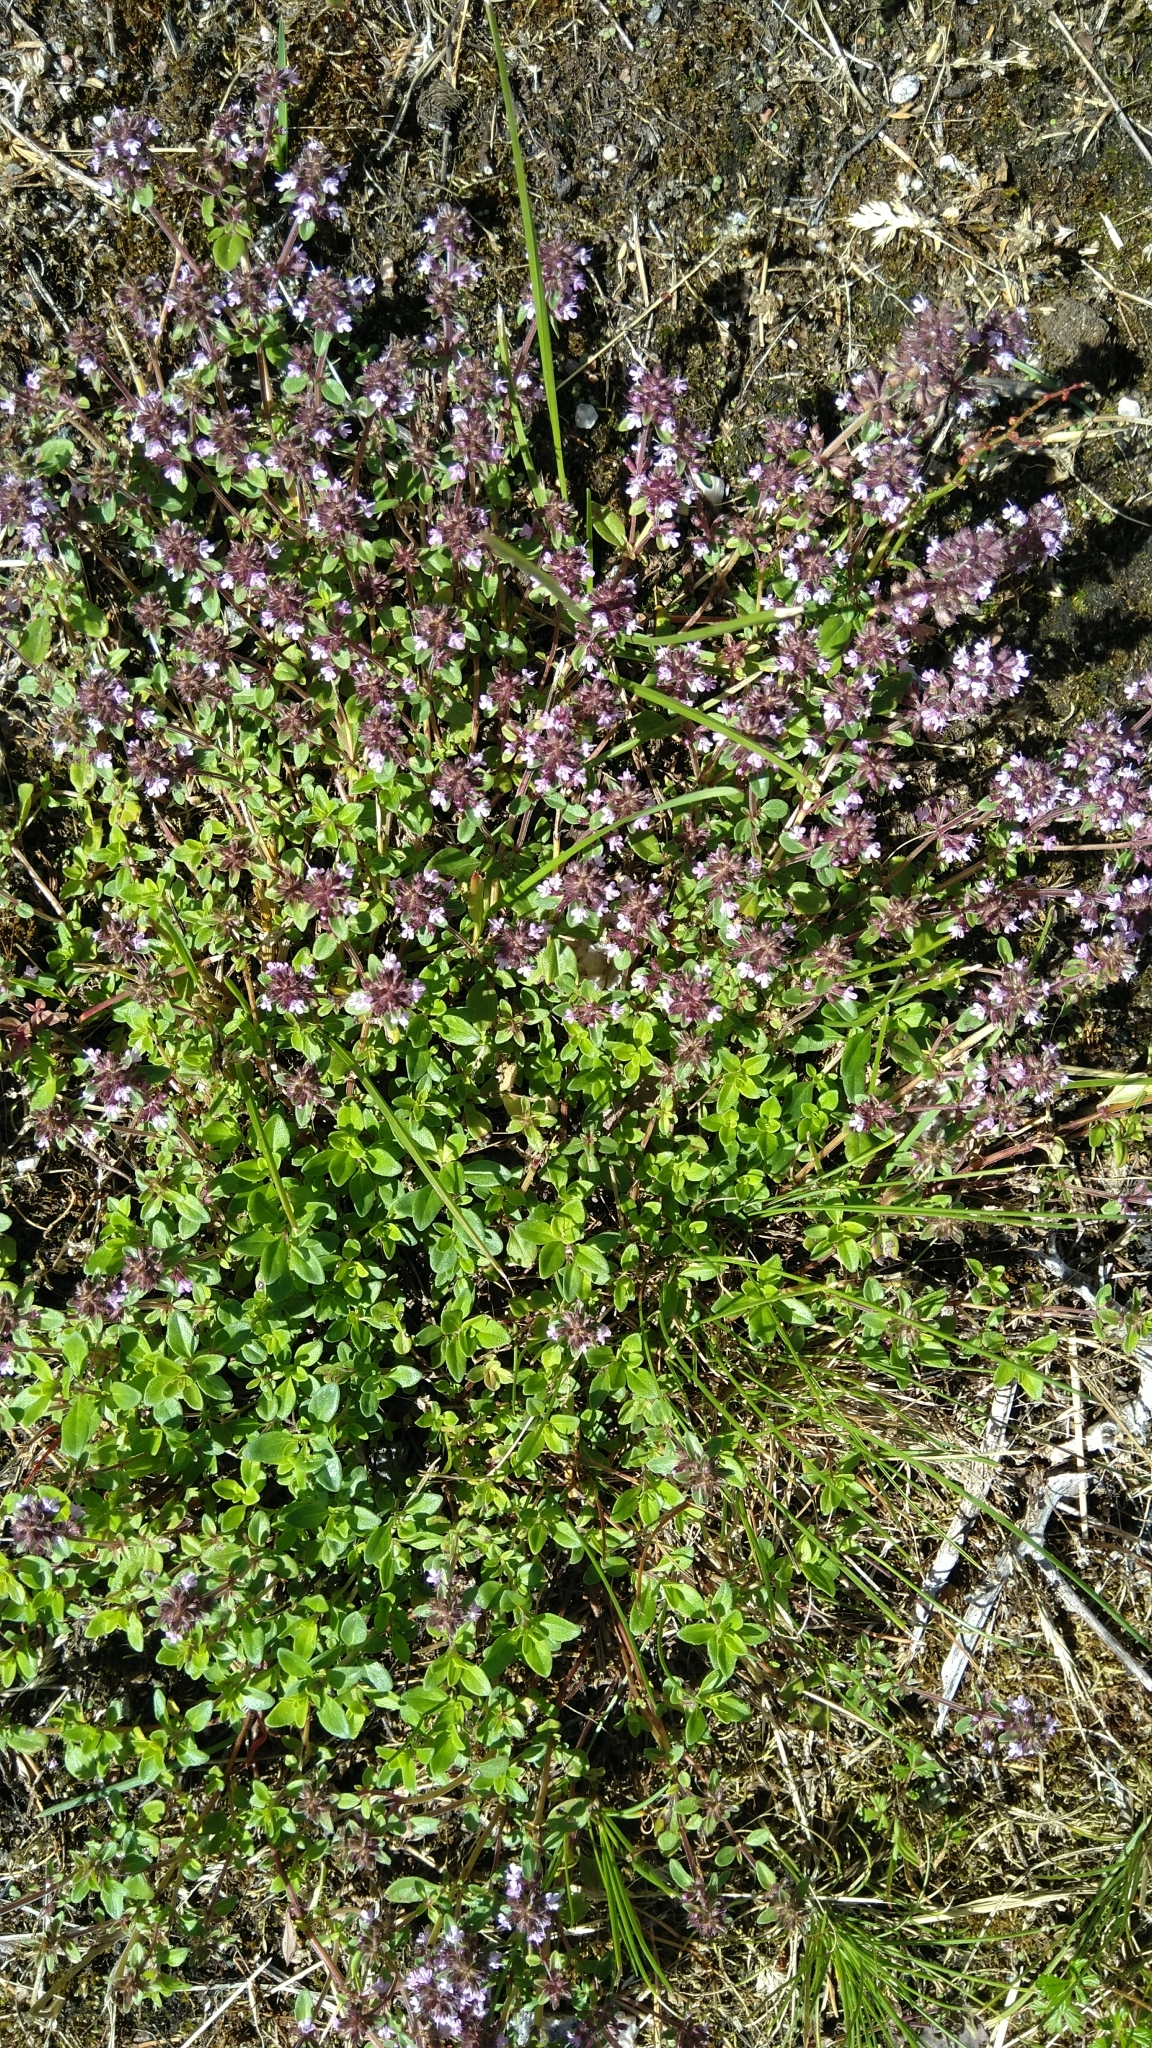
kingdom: Plantae
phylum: Tracheophyta
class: Magnoliopsida
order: Lamiales
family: Lamiaceae
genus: Thymus
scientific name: Thymus pulegioides
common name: Large thyme
